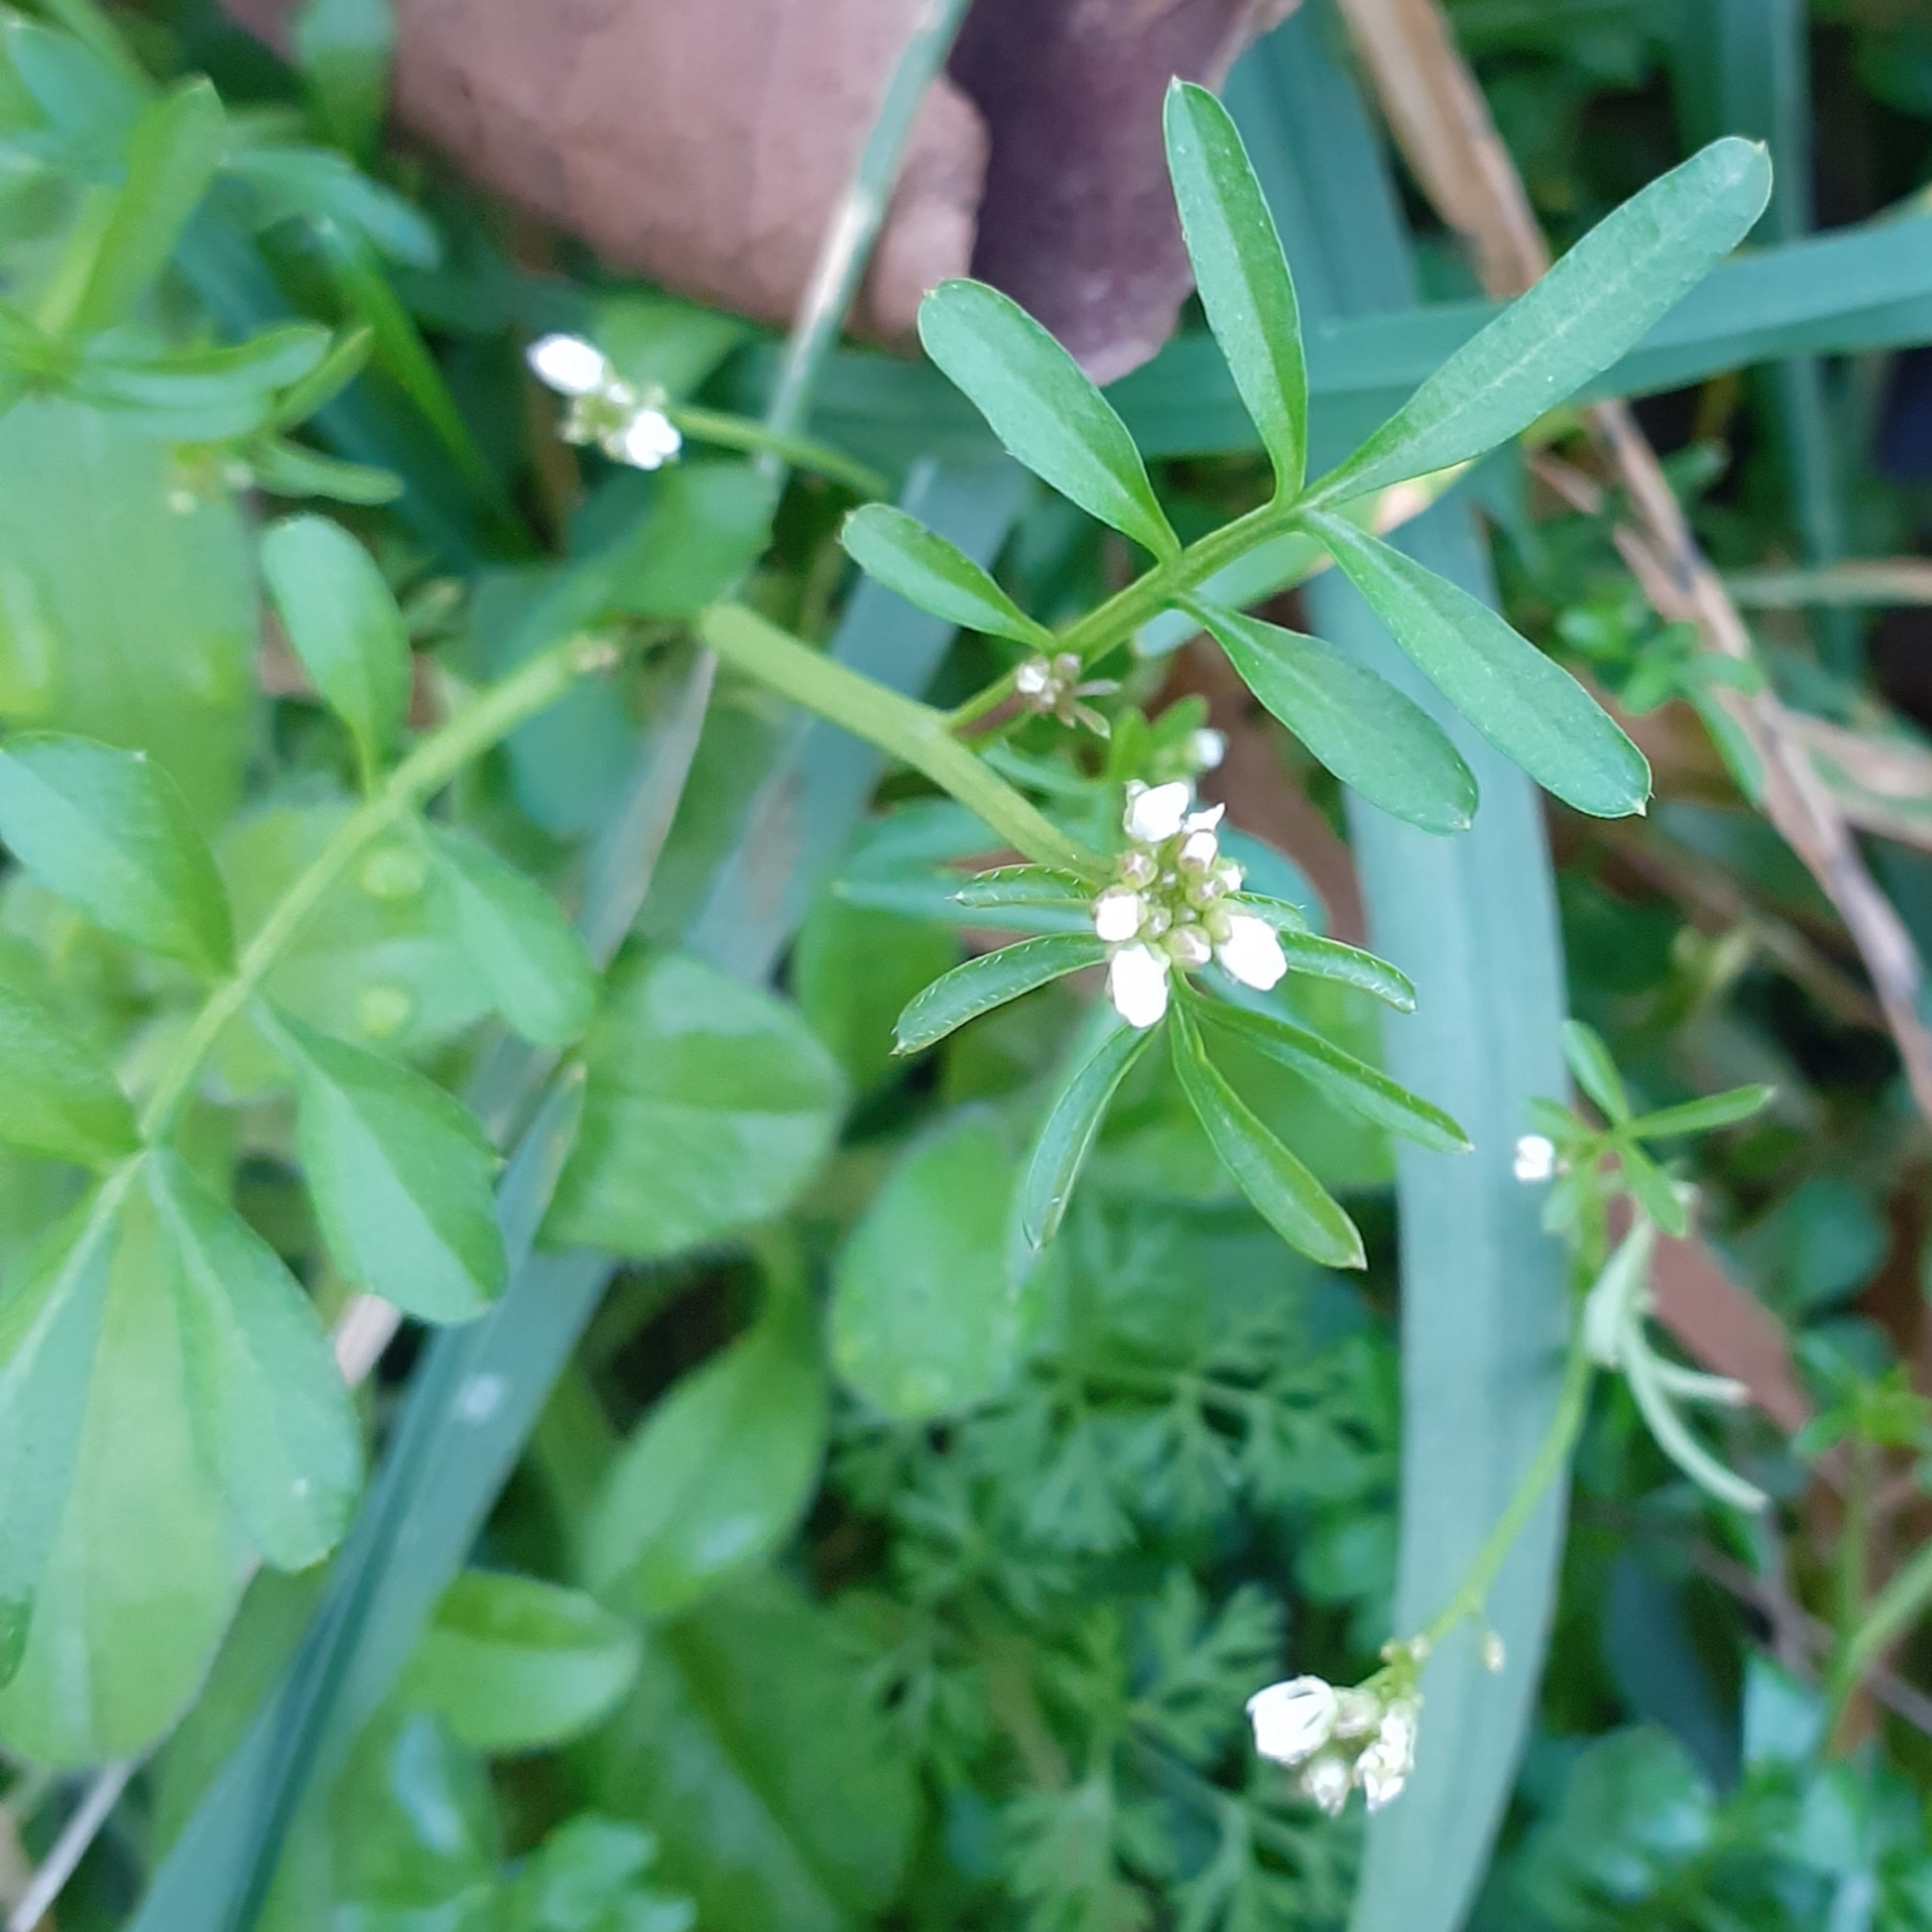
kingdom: Plantae
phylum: Tracheophyta
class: Magnoliopsida
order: Brassicales
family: Brassicaceae
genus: Cardamine
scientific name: Cardamine hirsuta
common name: Hairy bittercress
